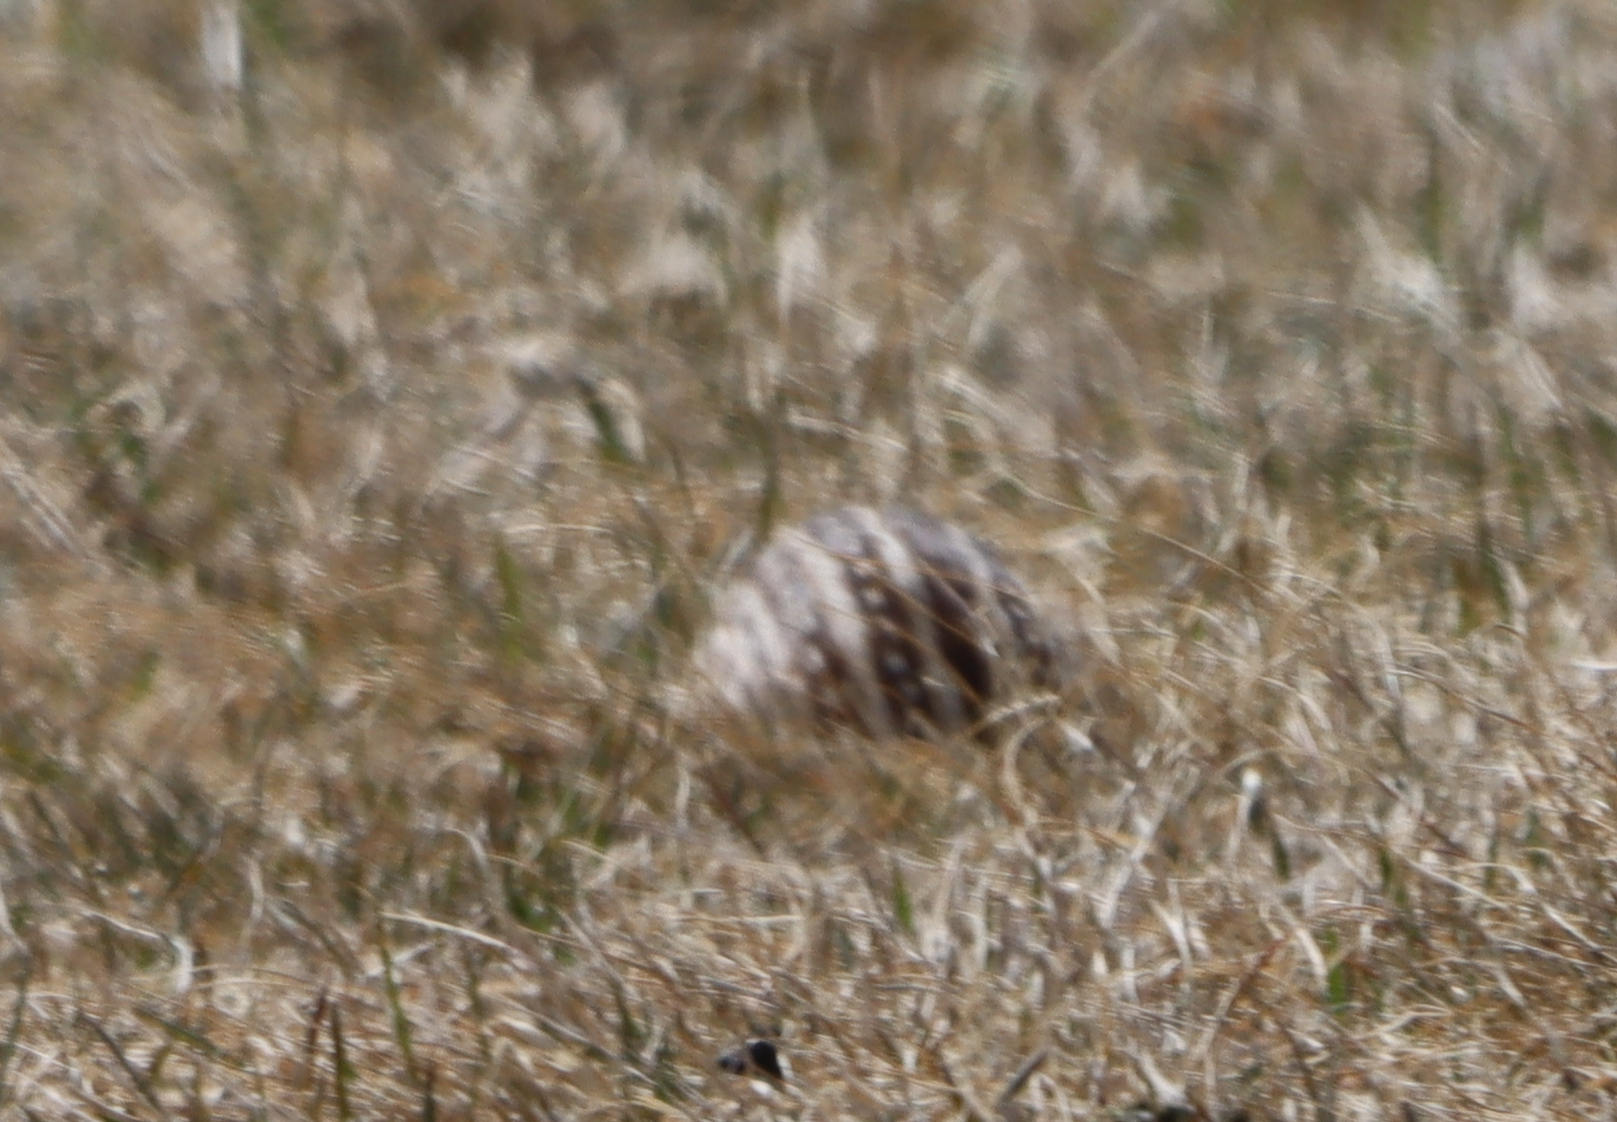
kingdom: Animalia
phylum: Chordata
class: Mammalia
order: Rodentia
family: Sciuridae
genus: Ictidomys
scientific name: Ictidomys tridecemlineatus
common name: Thirteen-lined ground squirrel
